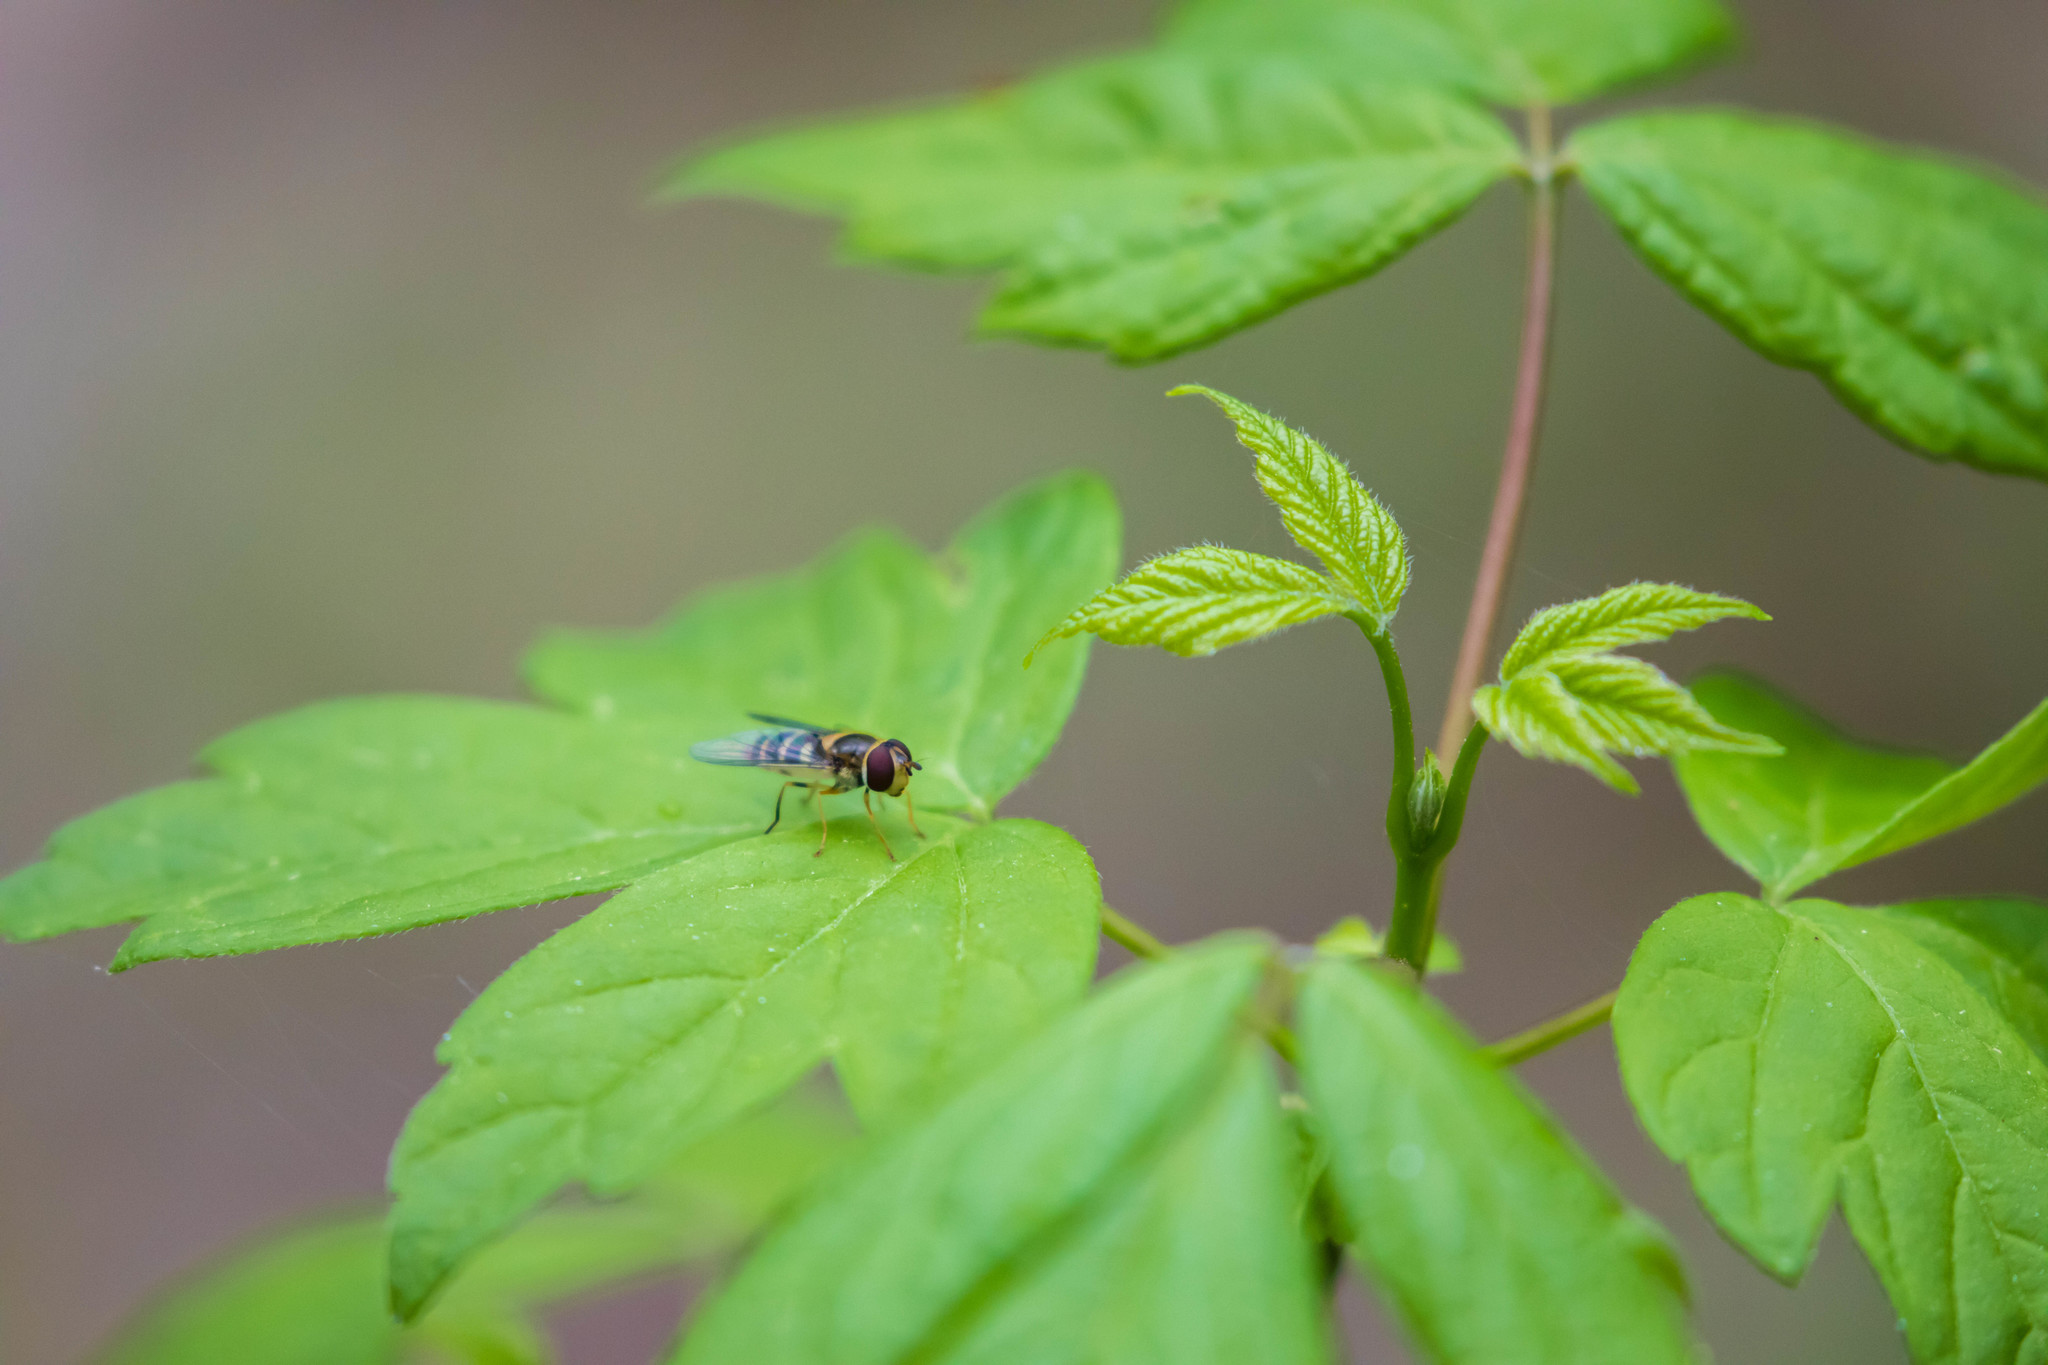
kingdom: Animalia
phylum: Arthropoda
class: Insecta
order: Diptera
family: Syrphidae
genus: Syrphus
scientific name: Syrphus rectus
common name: Yellow-legged flower fly
